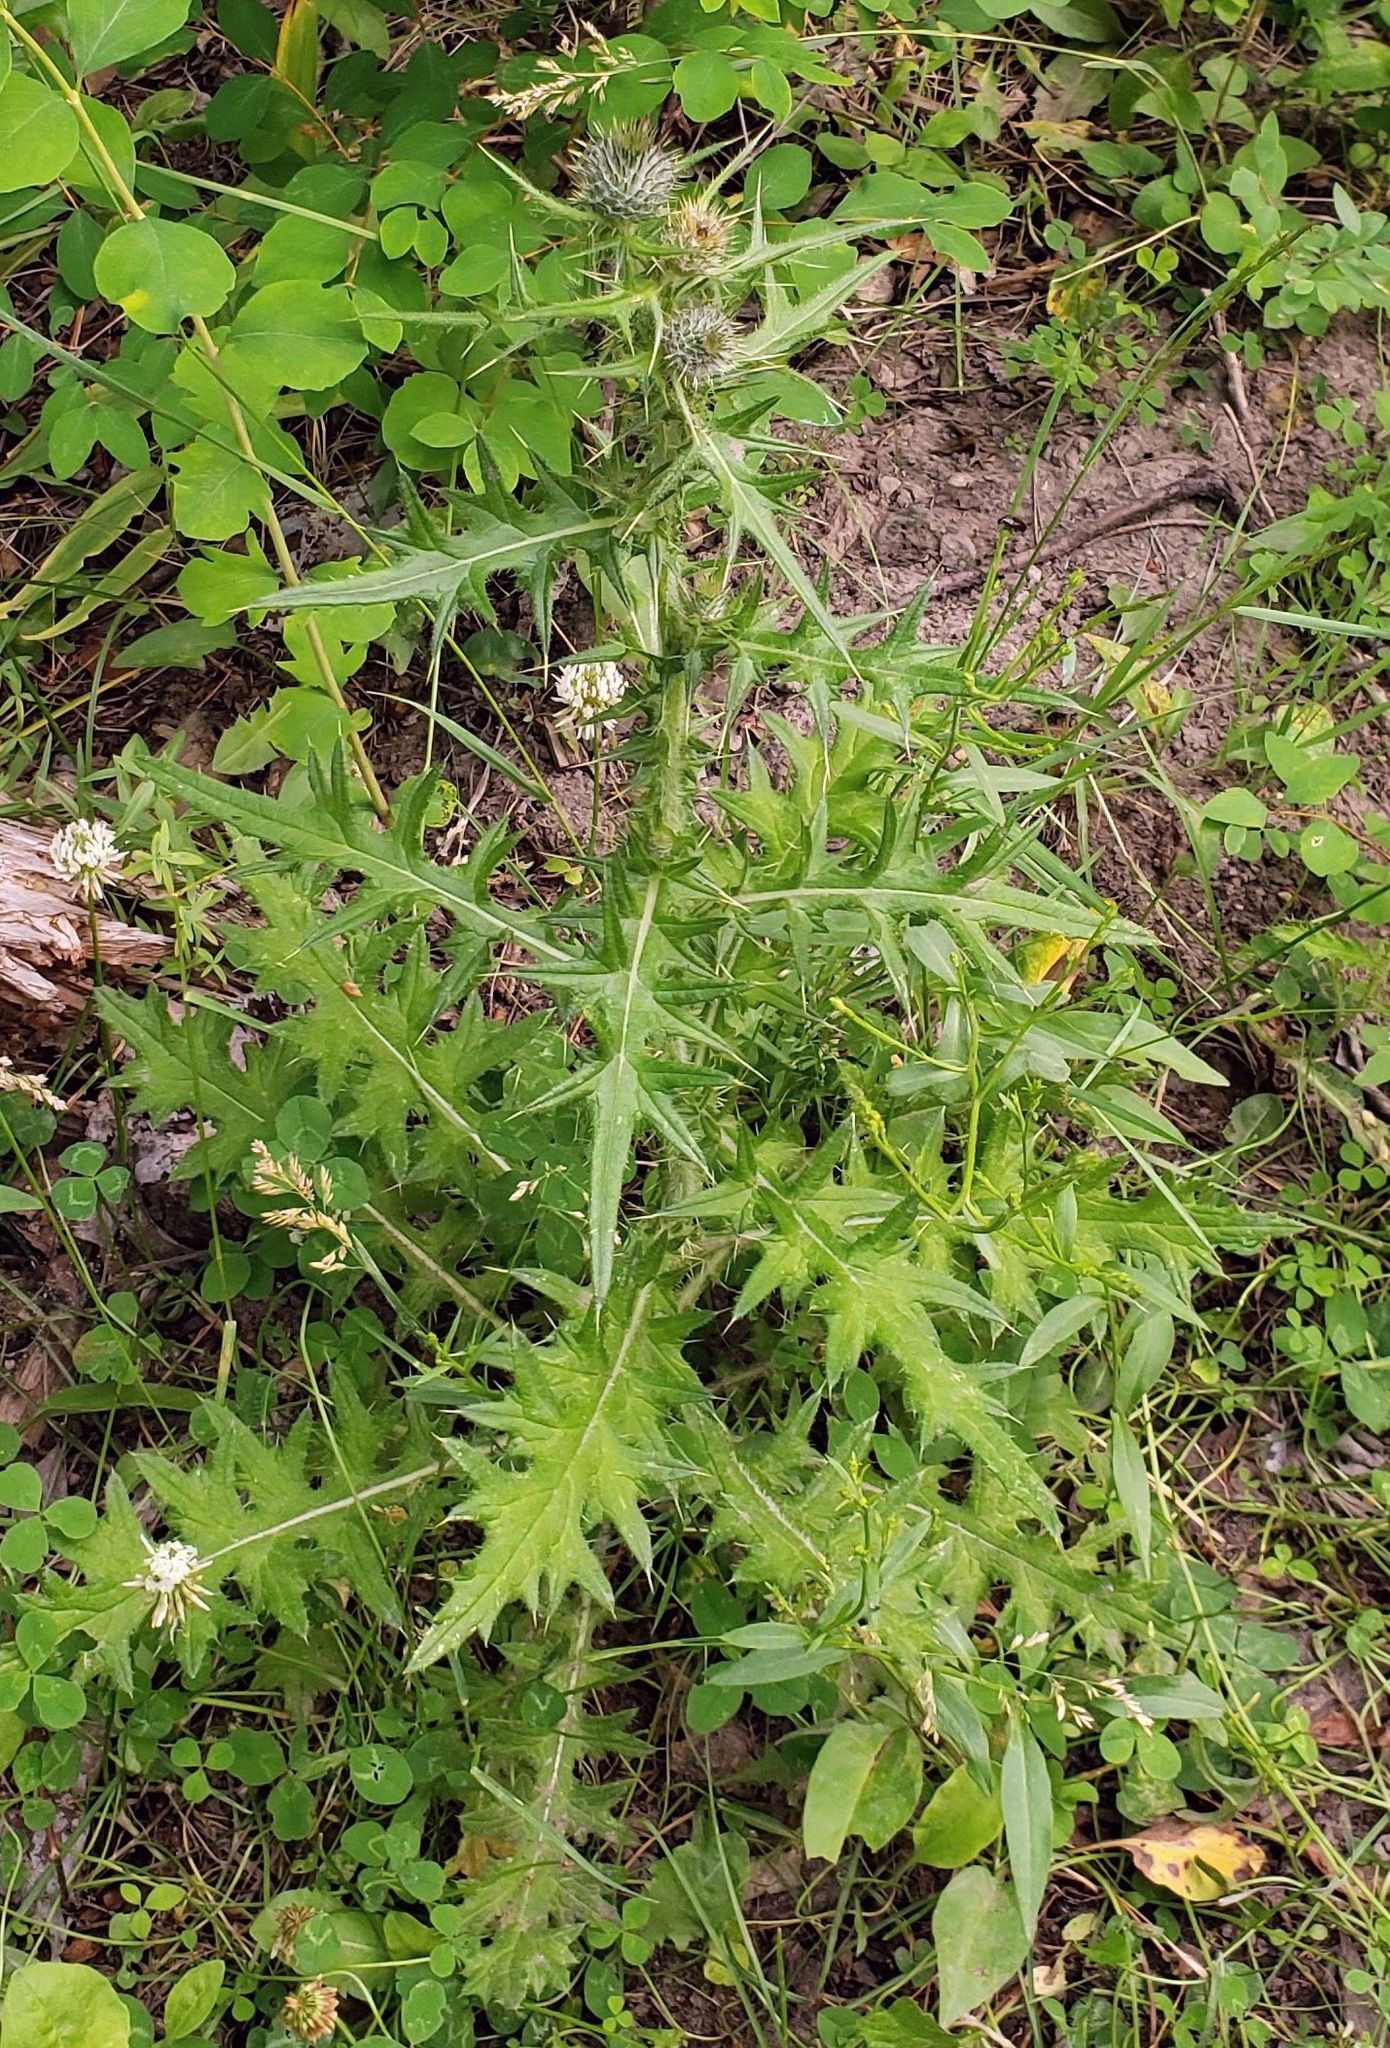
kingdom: Plantae
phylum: Tracheophyta
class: Magnoliopsida
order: Asterales
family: Asteraceae
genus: Cirsium
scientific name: Cirsium vulgare
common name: Bull thistle
